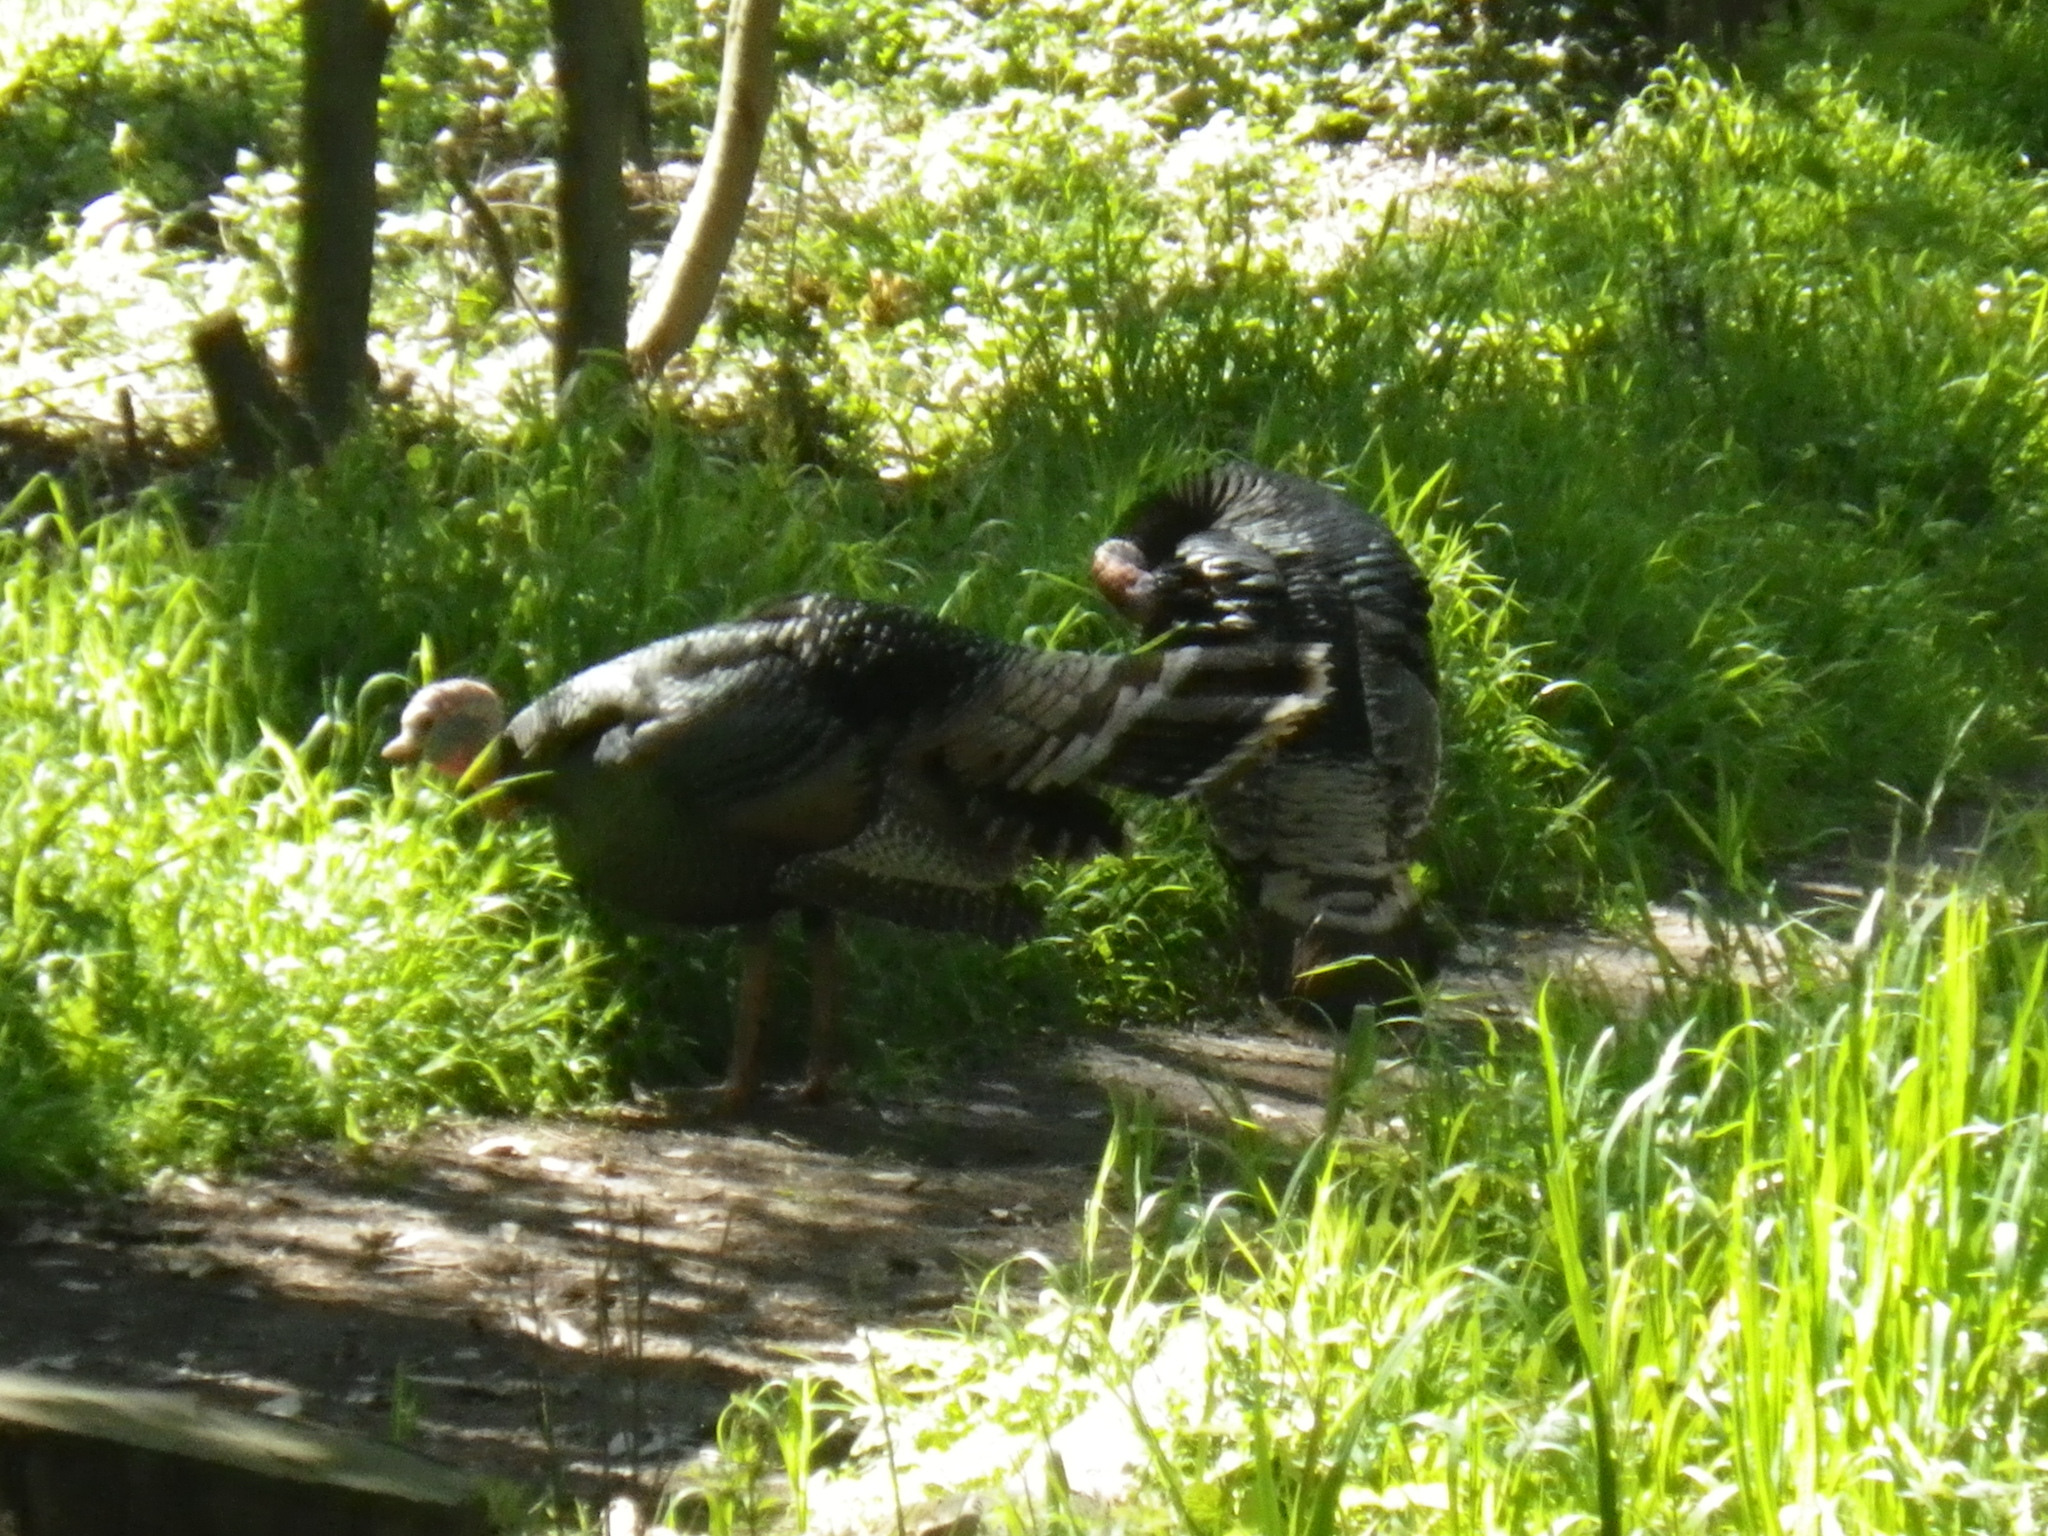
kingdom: Animalia
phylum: Chordata
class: Aves
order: Galliformes
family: Phasianidae
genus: Meleagris
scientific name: Meleagris gallopavo
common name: Wild turkey
